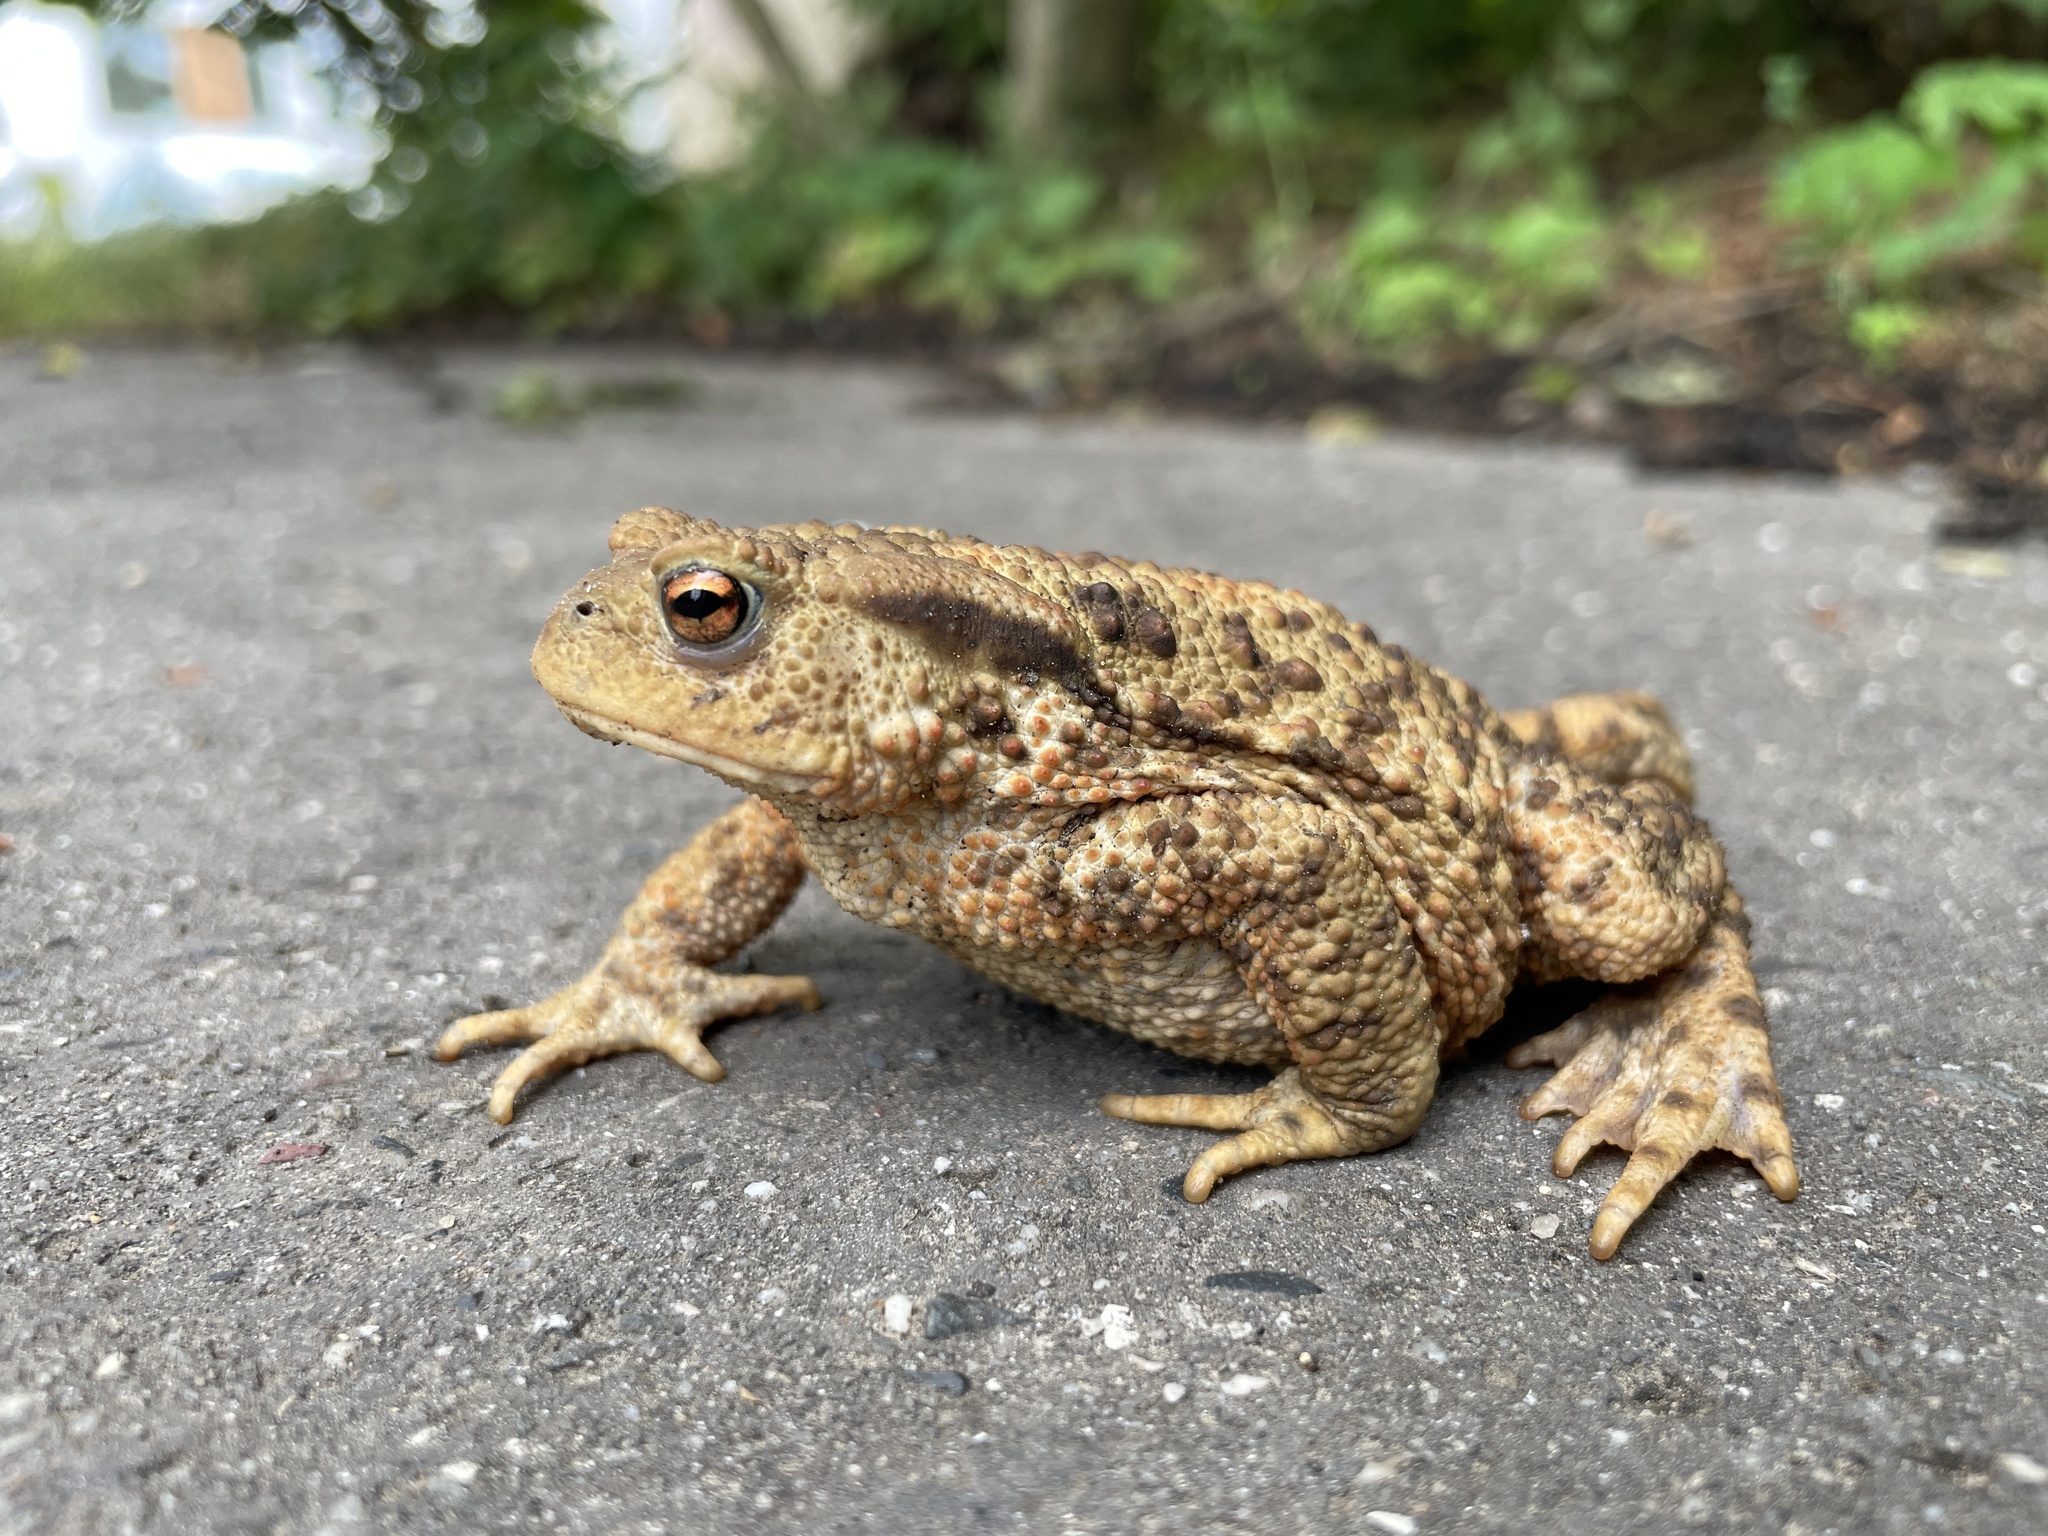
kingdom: Animalia
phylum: Chordata
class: Amphibia
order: Anura
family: Bufonidae
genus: Bufo
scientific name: Bufo bufo
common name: Common toad
